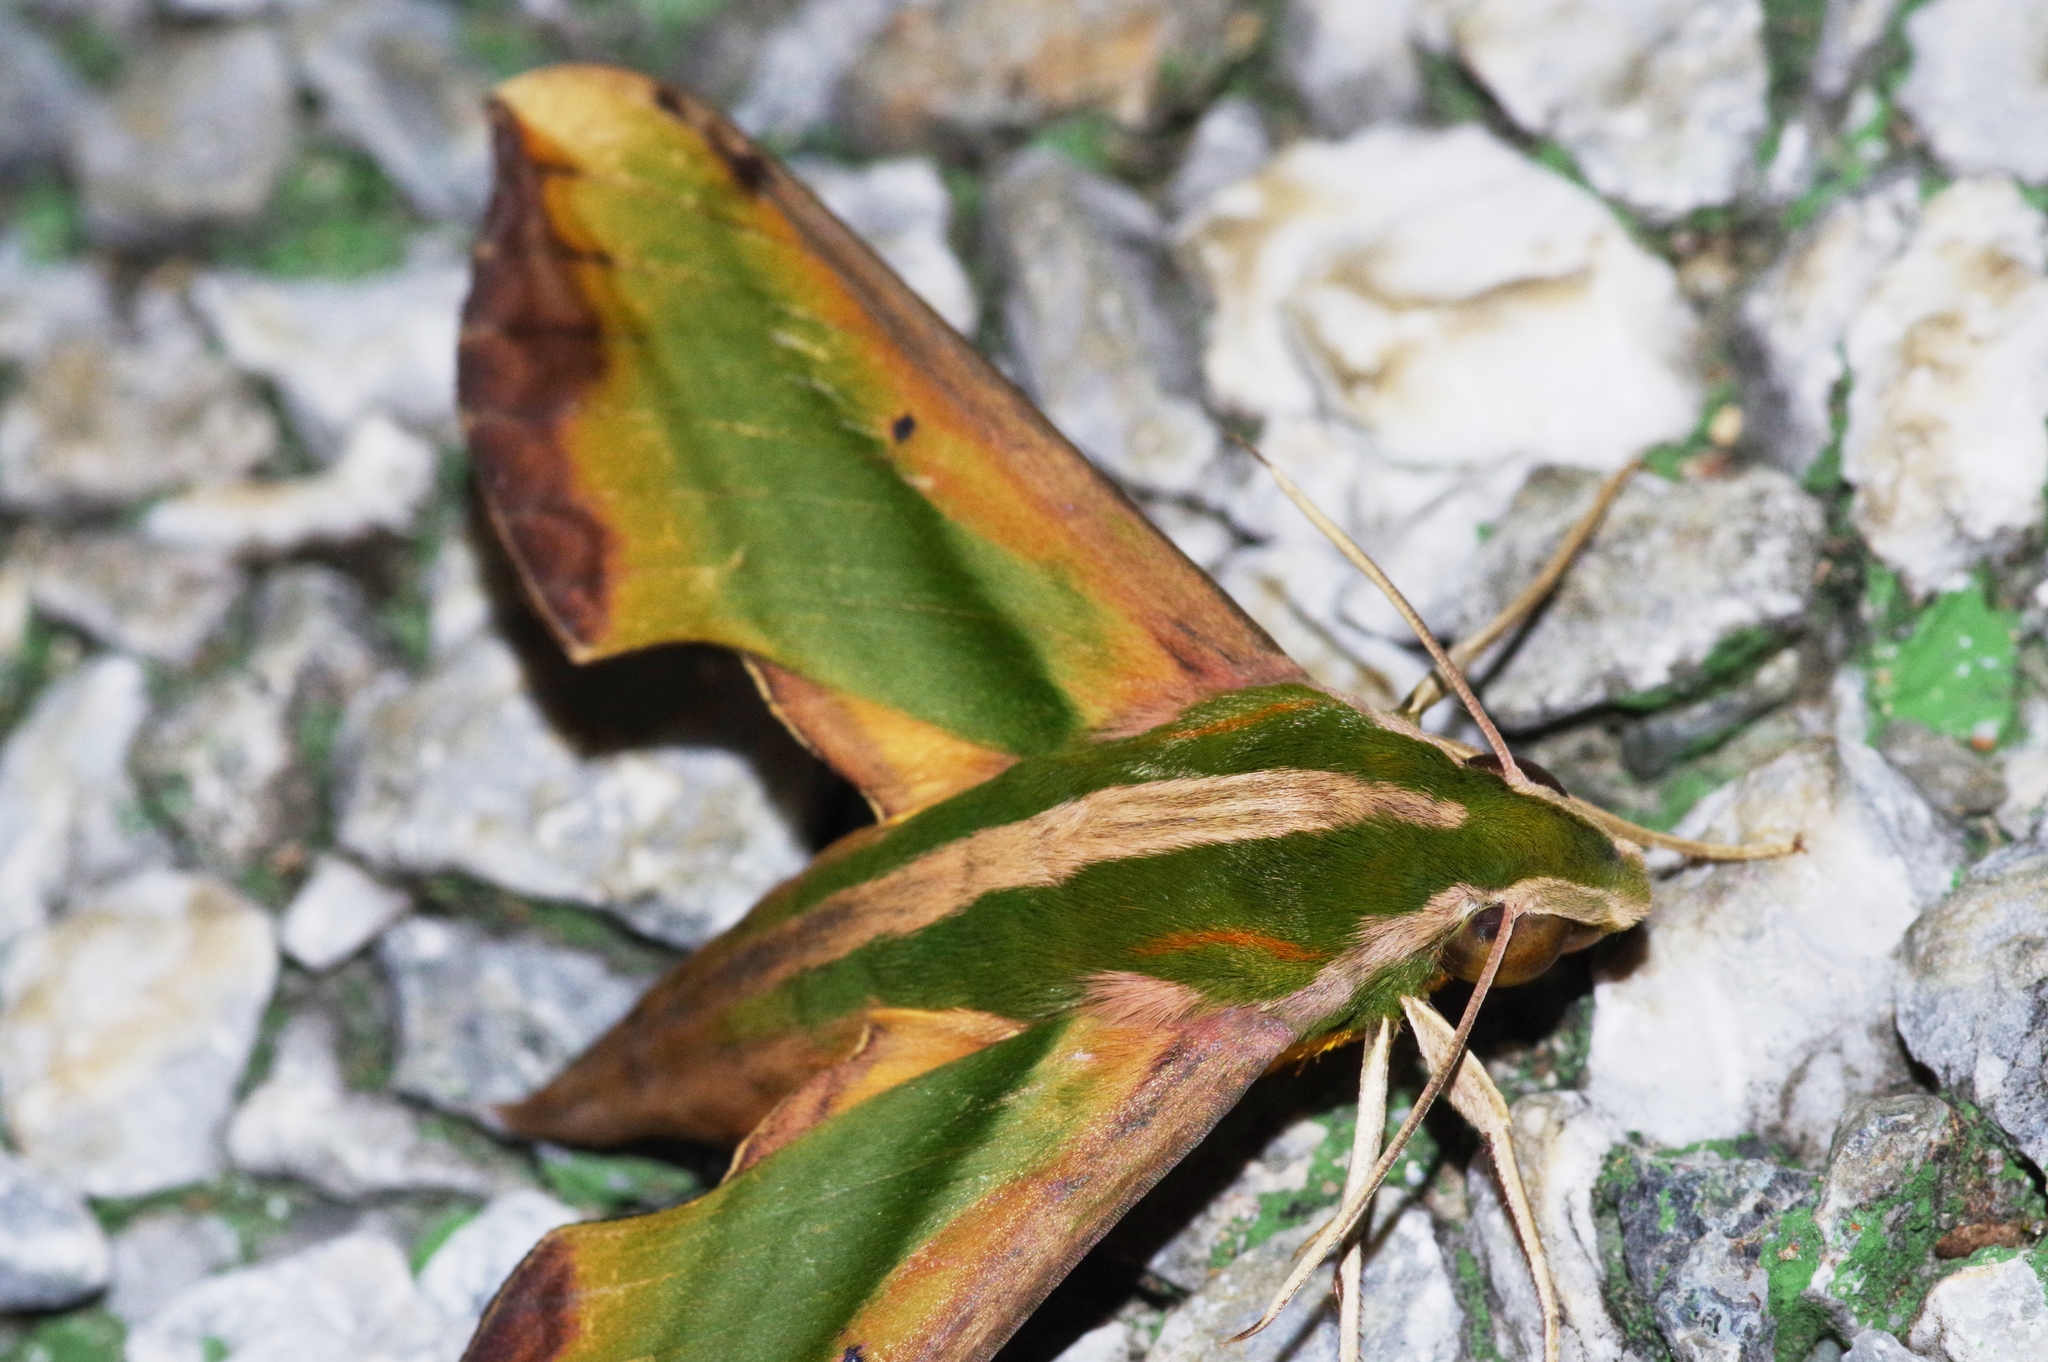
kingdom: Animalia
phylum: Arthropoda
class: Insecta
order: Lepidoptera
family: Sphingidae
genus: Pergesa
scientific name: Pergesa acteus
